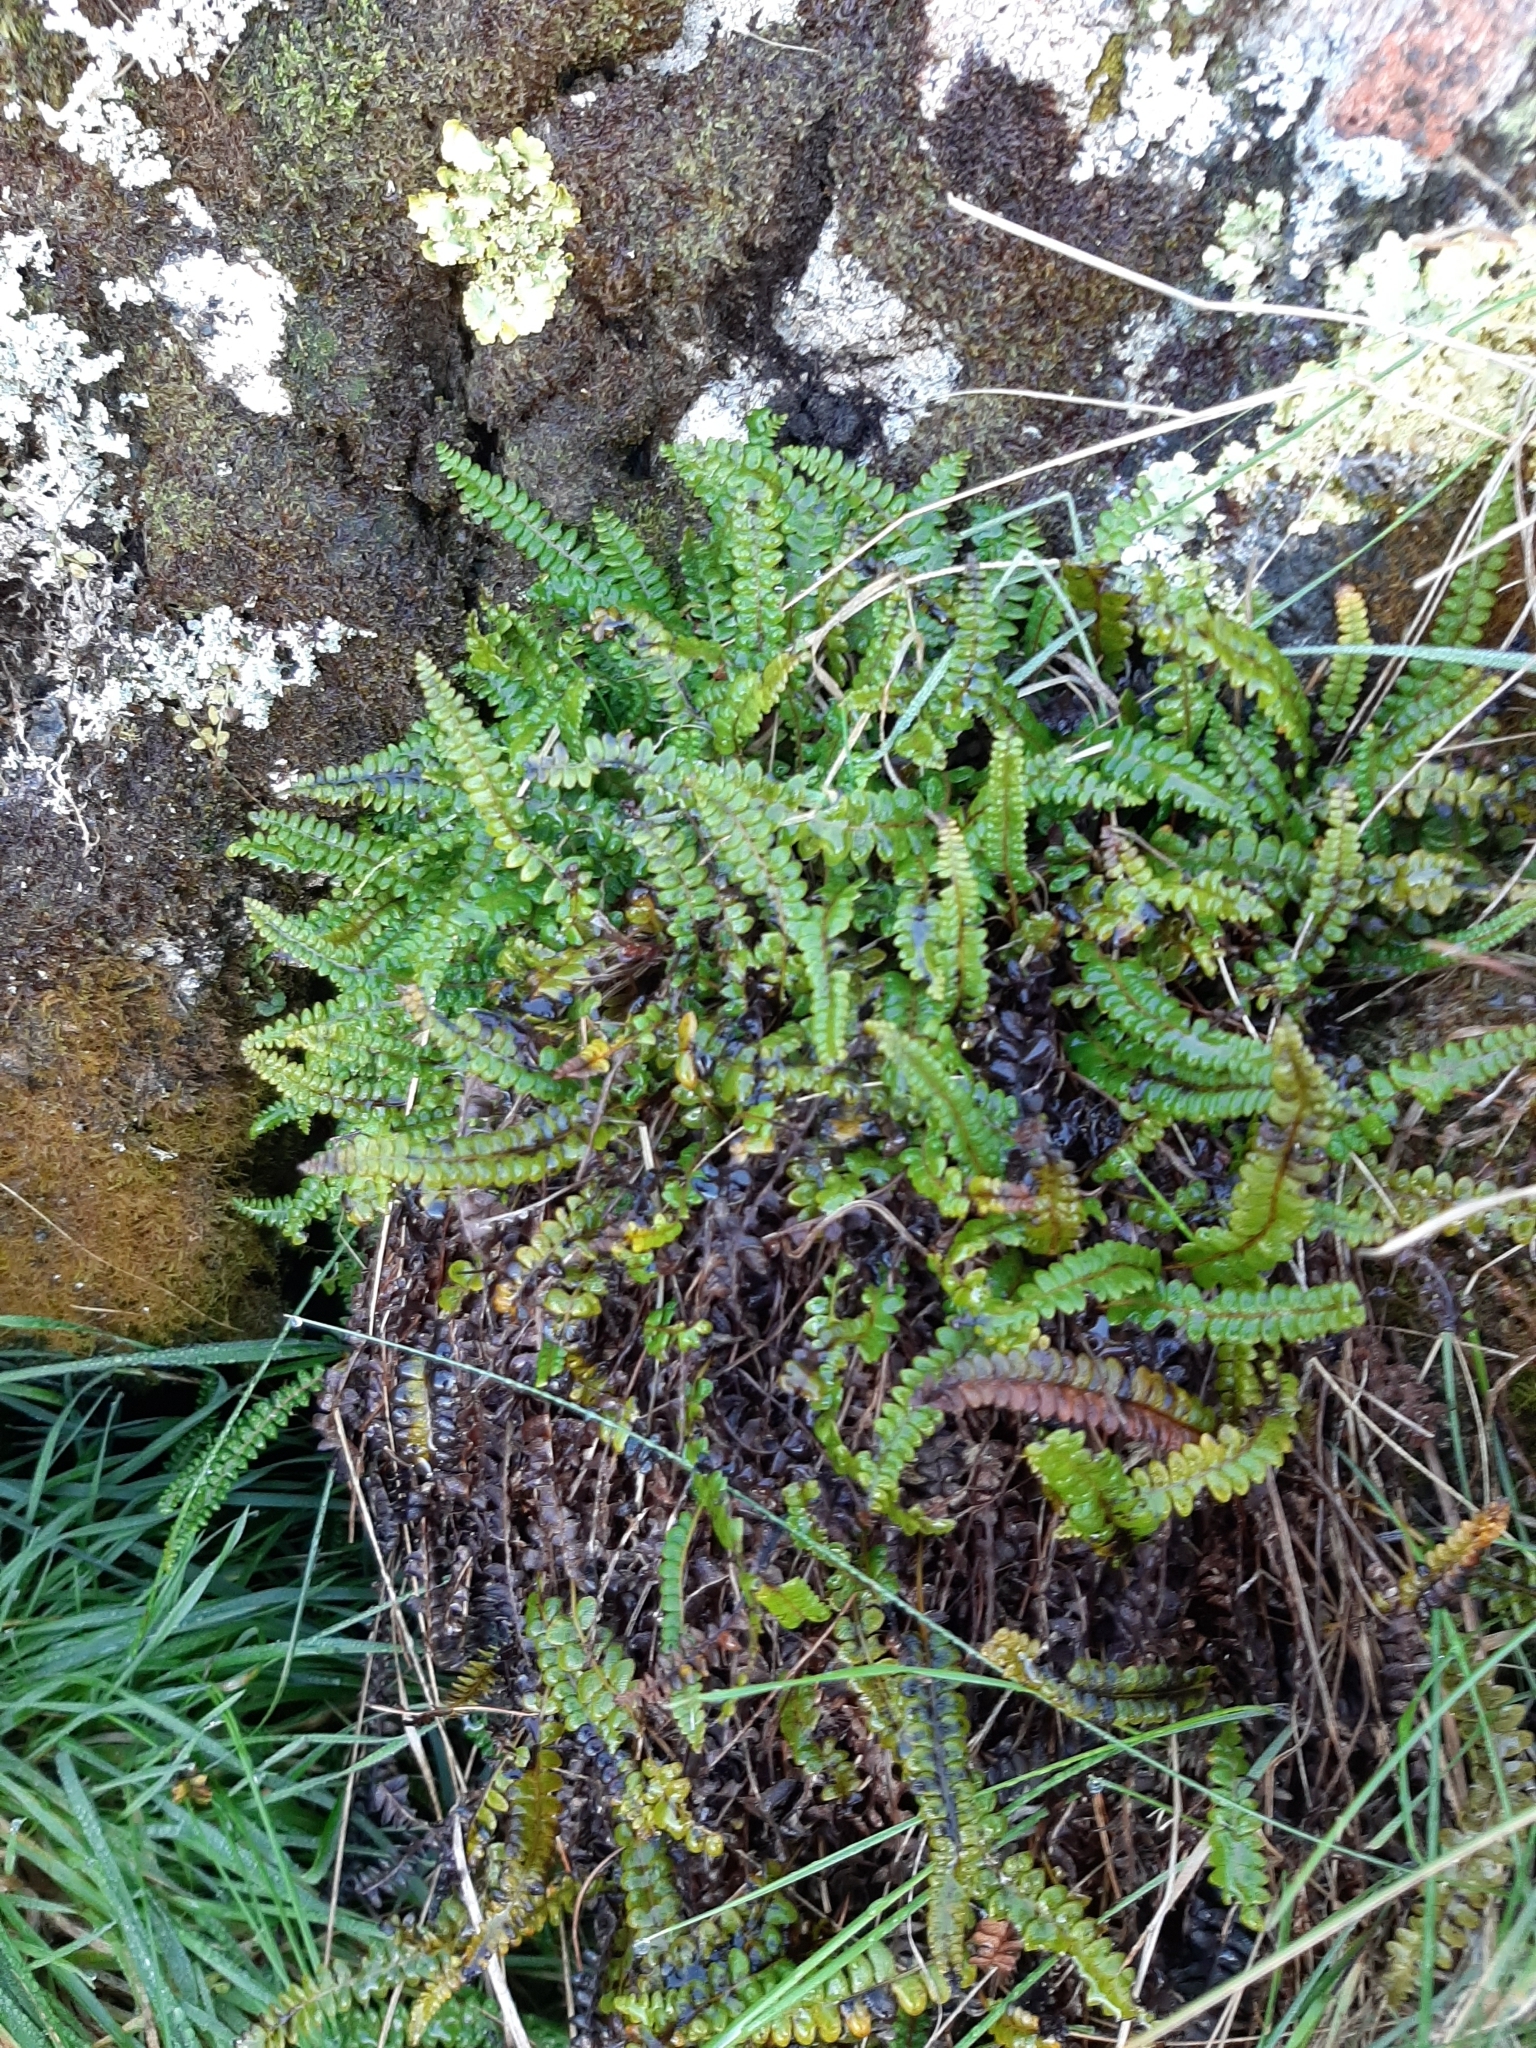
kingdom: Plantae
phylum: Tracheophyta
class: Polypodiopsida
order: Polypodiales
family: Blechnaceae
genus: Austroblechnum
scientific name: Austroblechnum penna-marina
